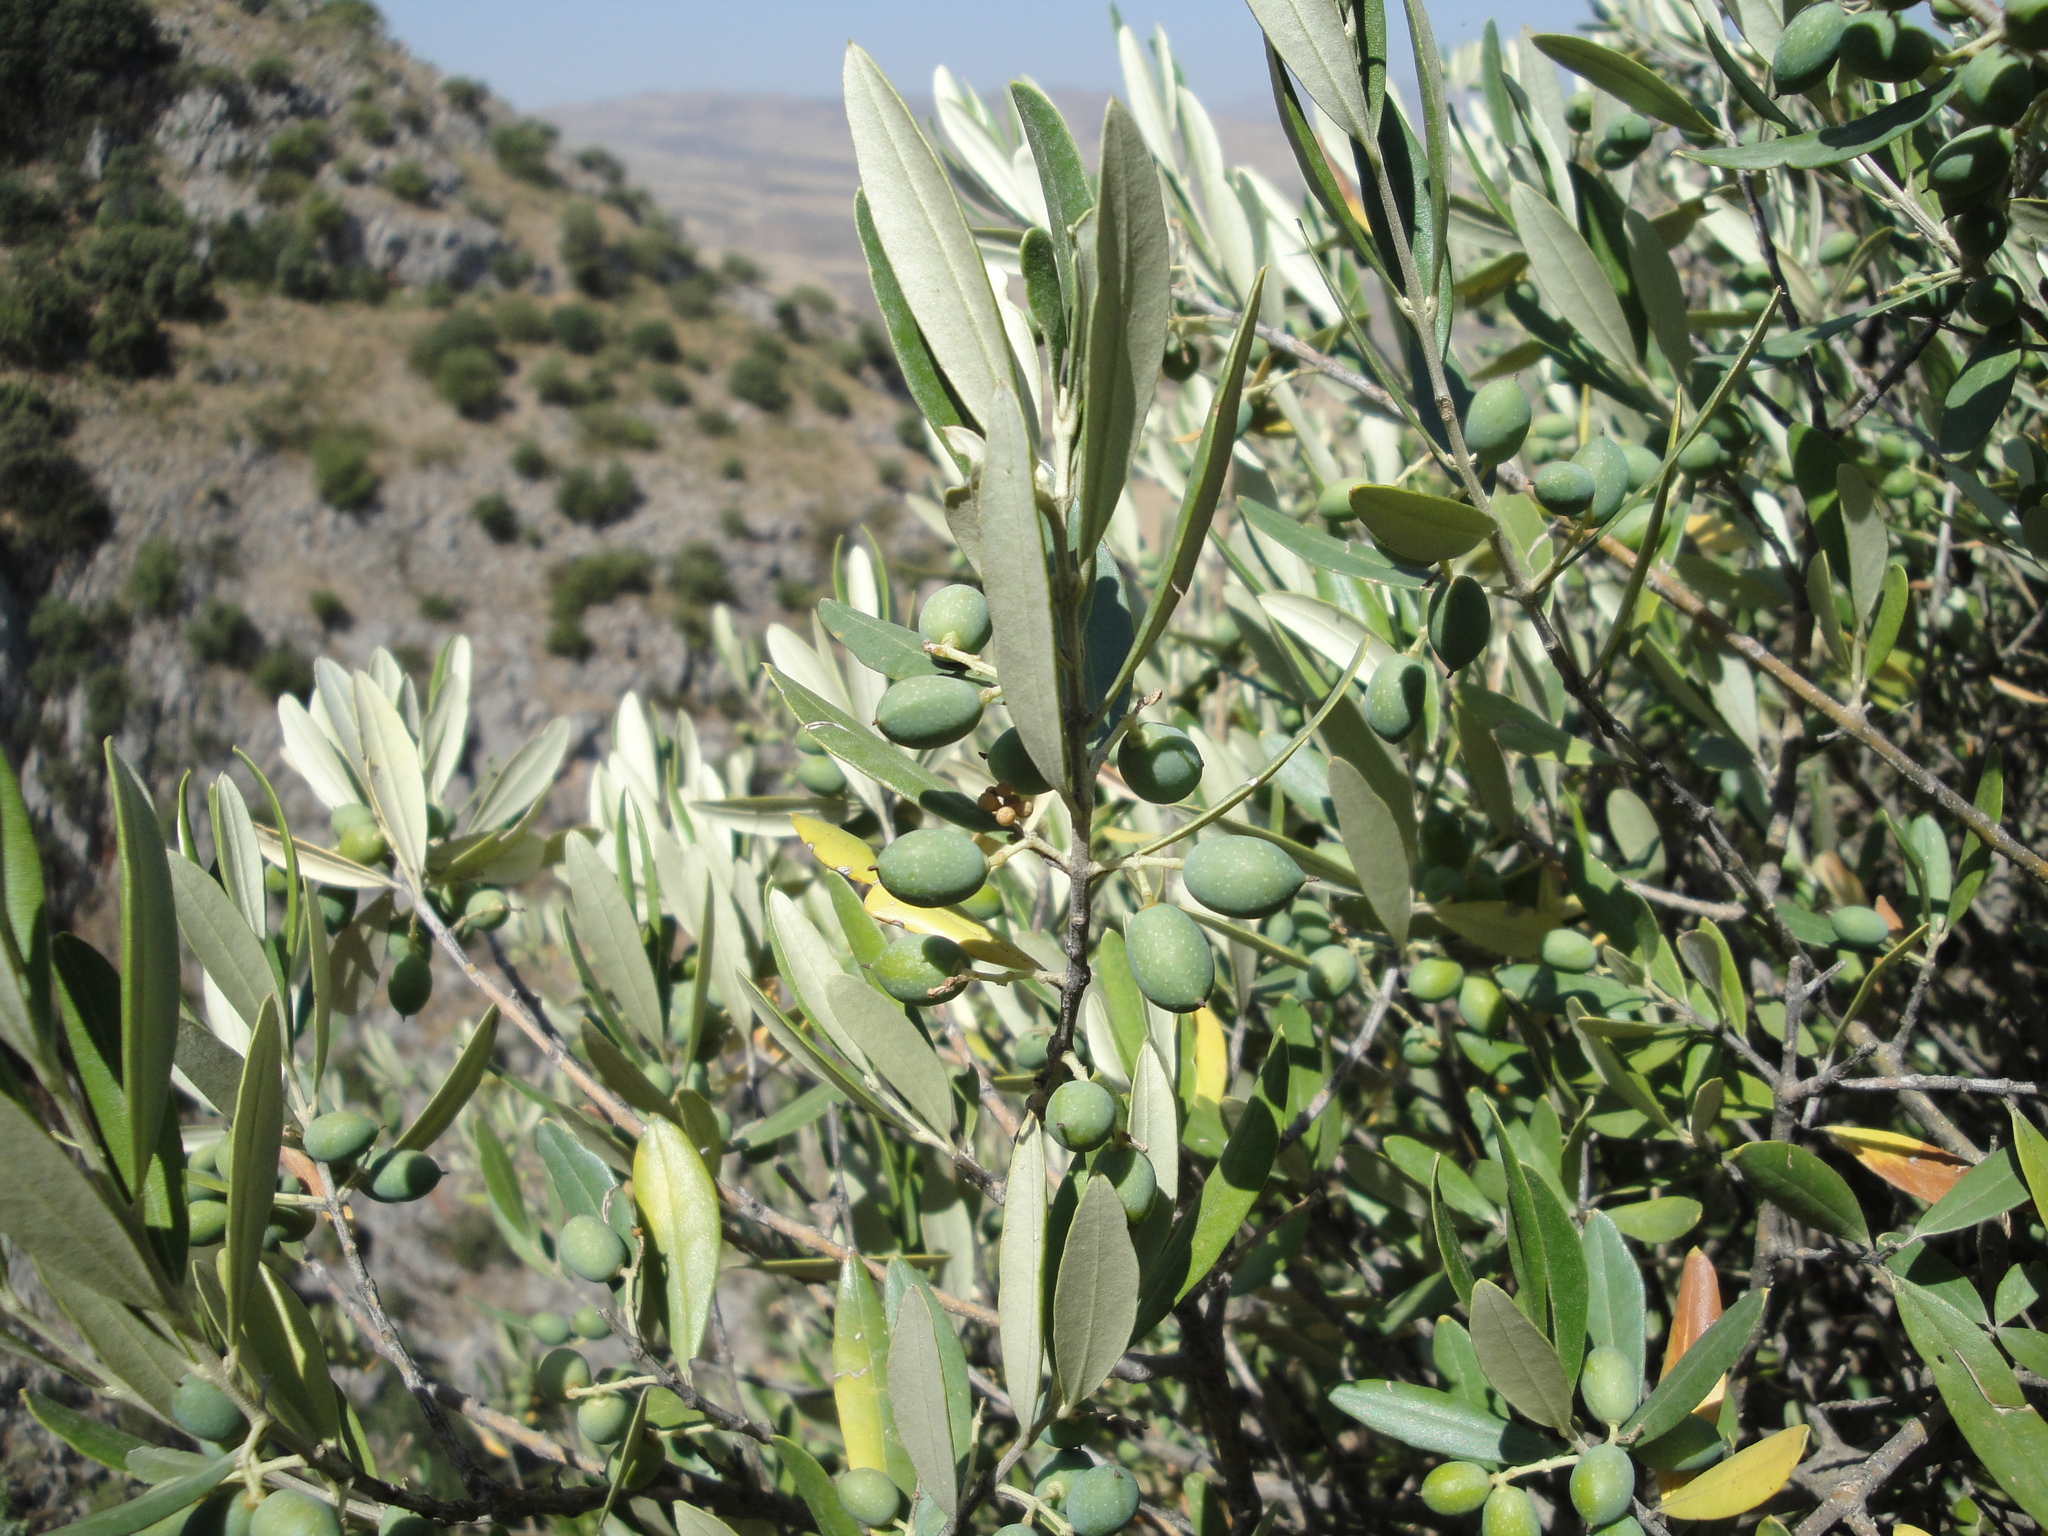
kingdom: Plantae
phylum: Tracheophyta
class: Magnoliopsida
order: Lamiales
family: Oleaceae
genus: Olea
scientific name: Olea europaea
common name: Olive
